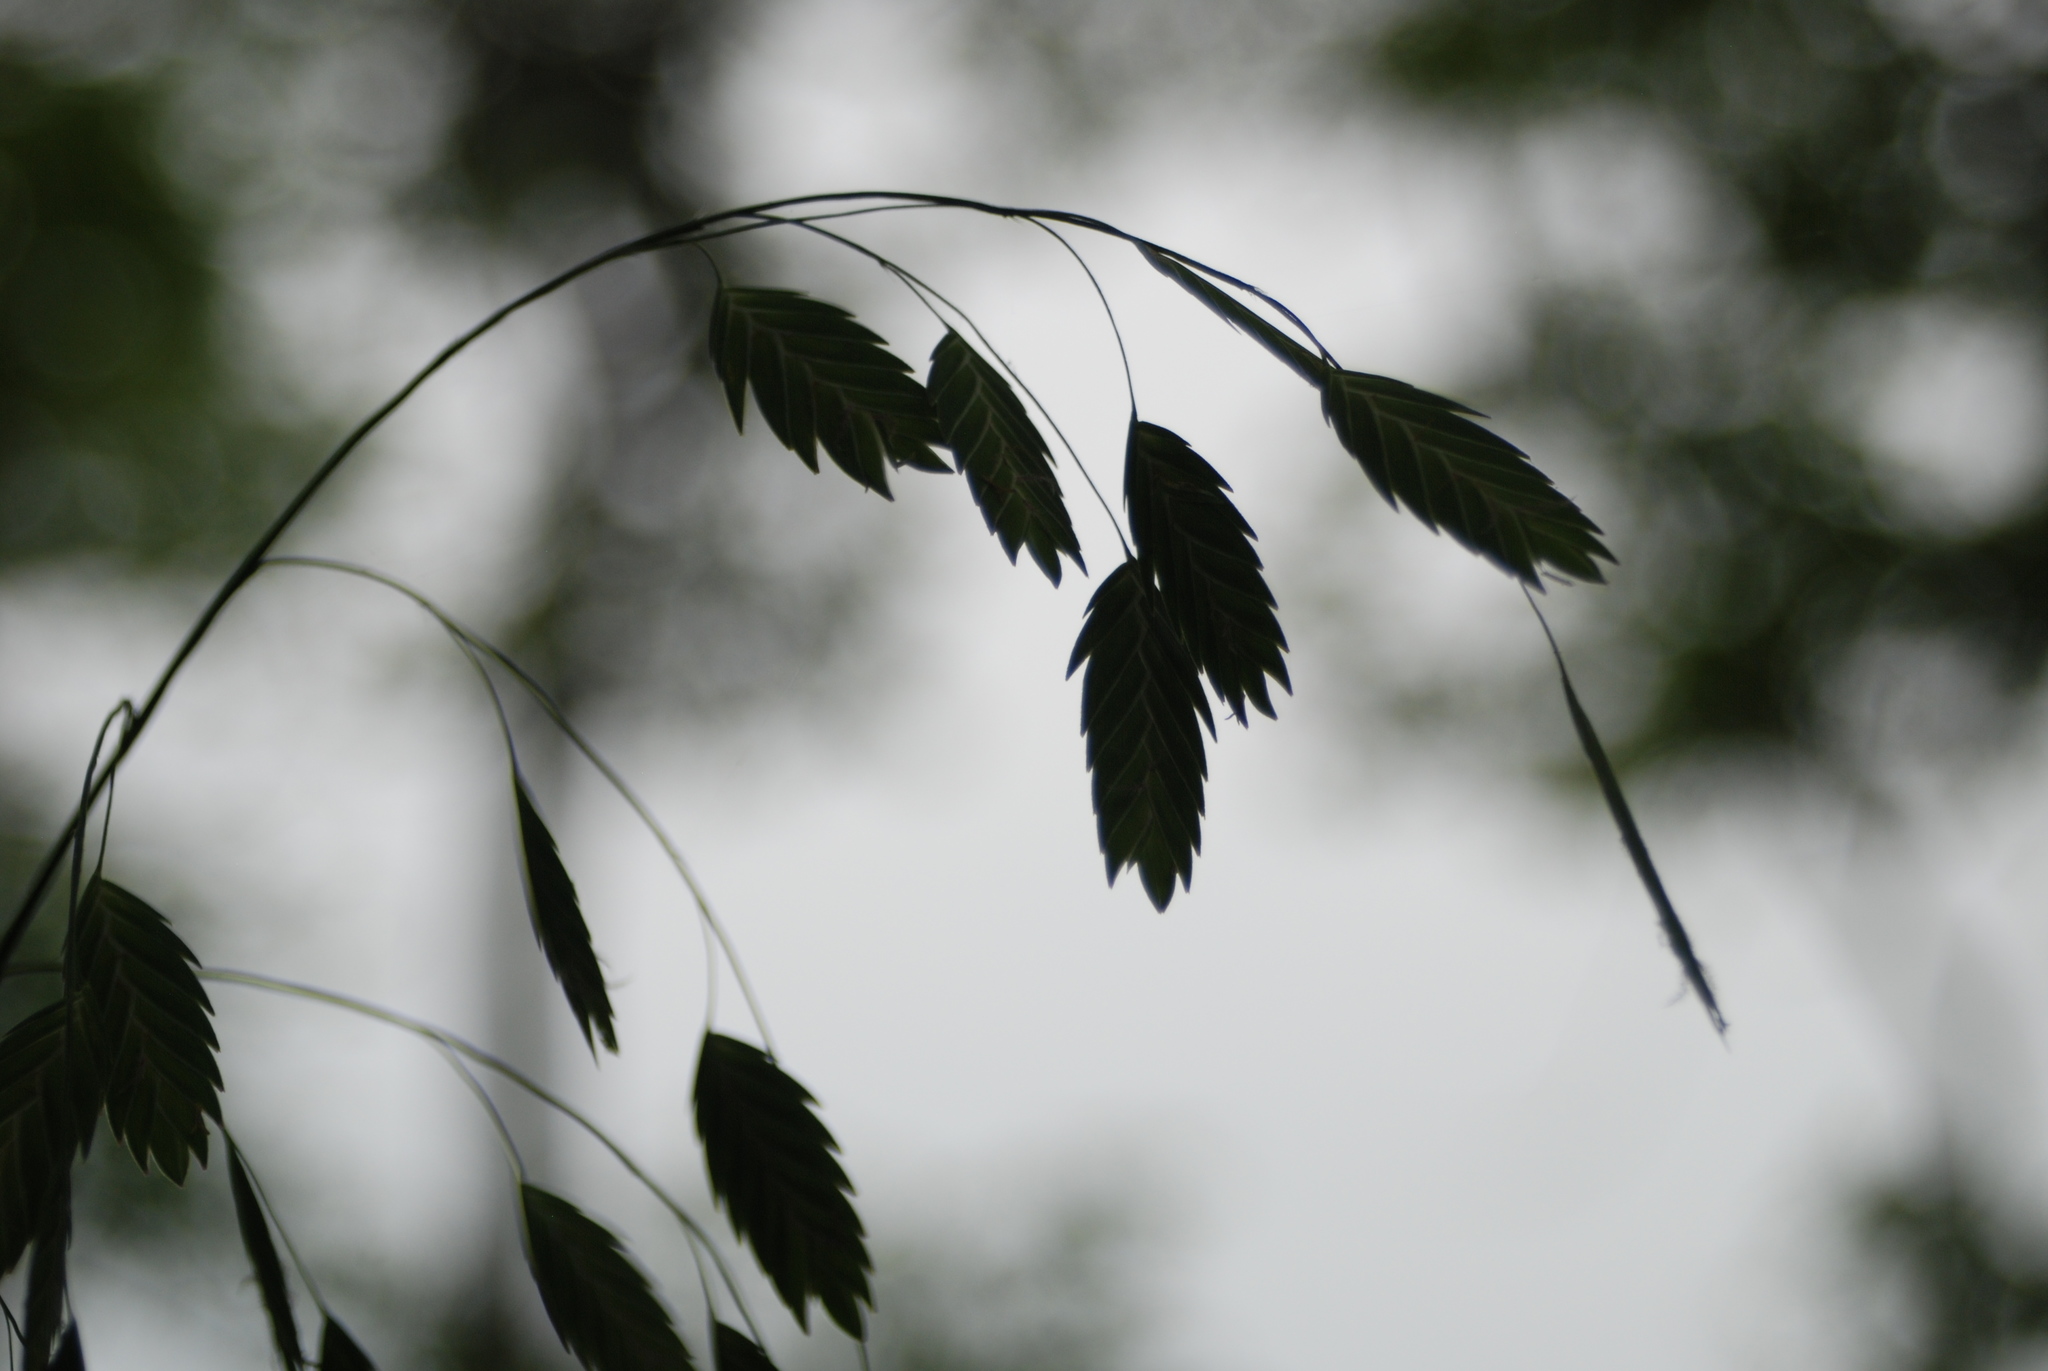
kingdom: Plantae
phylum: Tracheophyta
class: Liliopsida
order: Poales
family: Poaceae
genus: Chasmanthium
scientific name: Chasmanthium latifolium
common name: Broad-leaved chasmanthium
